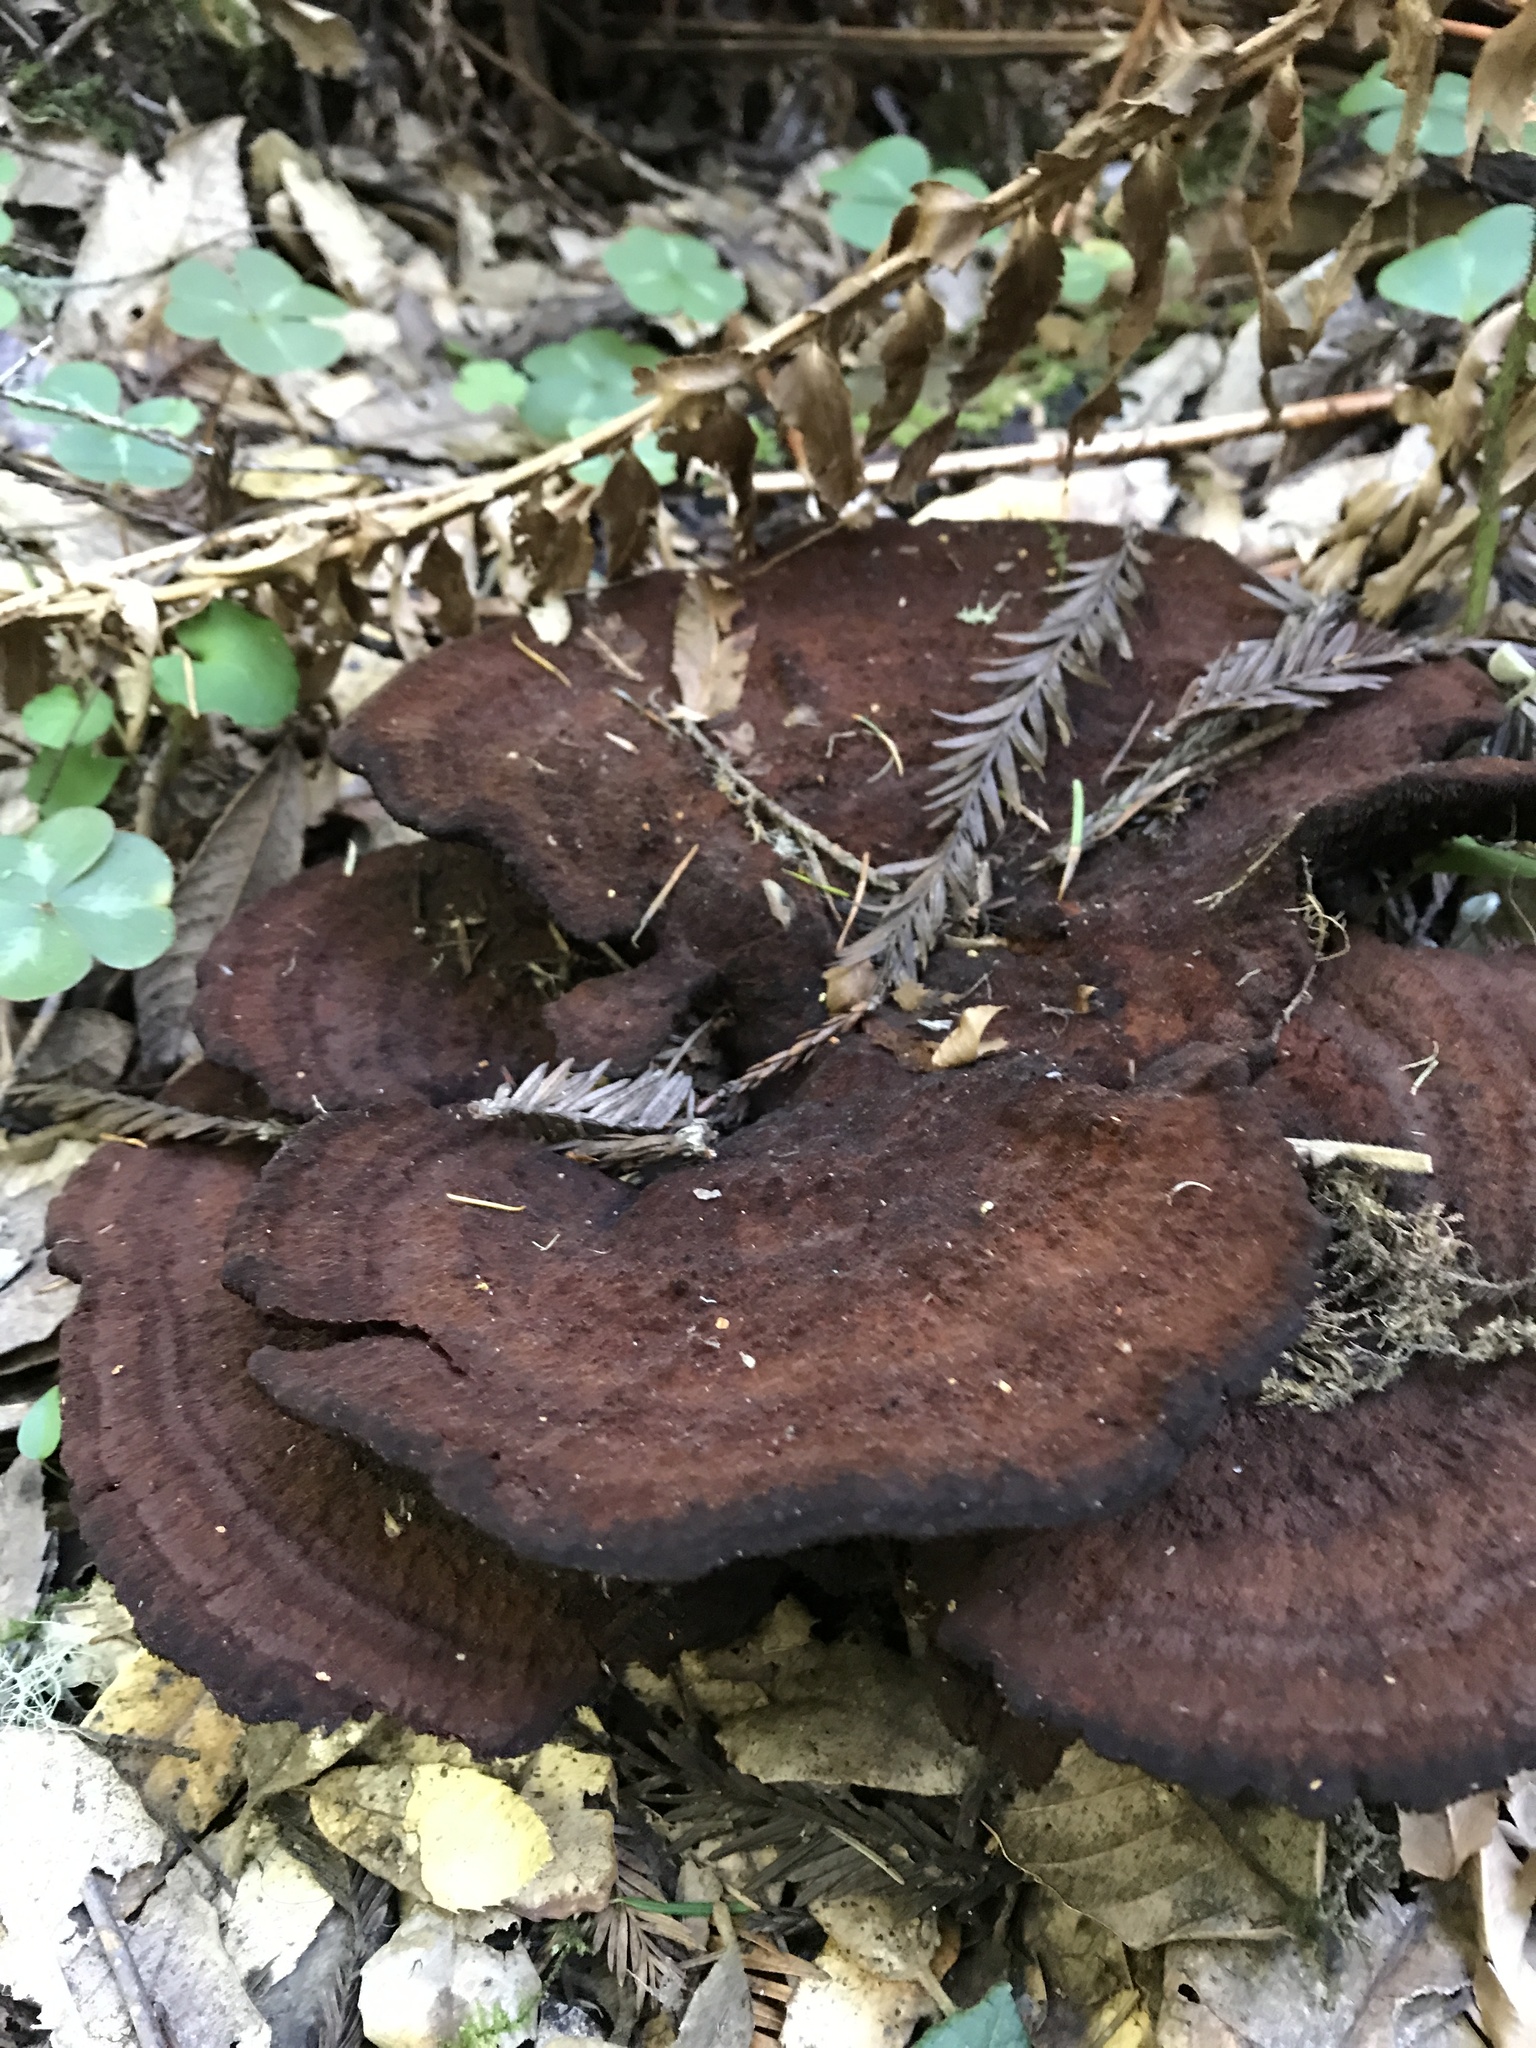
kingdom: Fungi
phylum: Basidiomycota
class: Agaricomycetes
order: Polyporales
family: Laetiporaceae
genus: Phaeolus
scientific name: Phaeolus schweinitzii
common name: Dyer's mazegill
